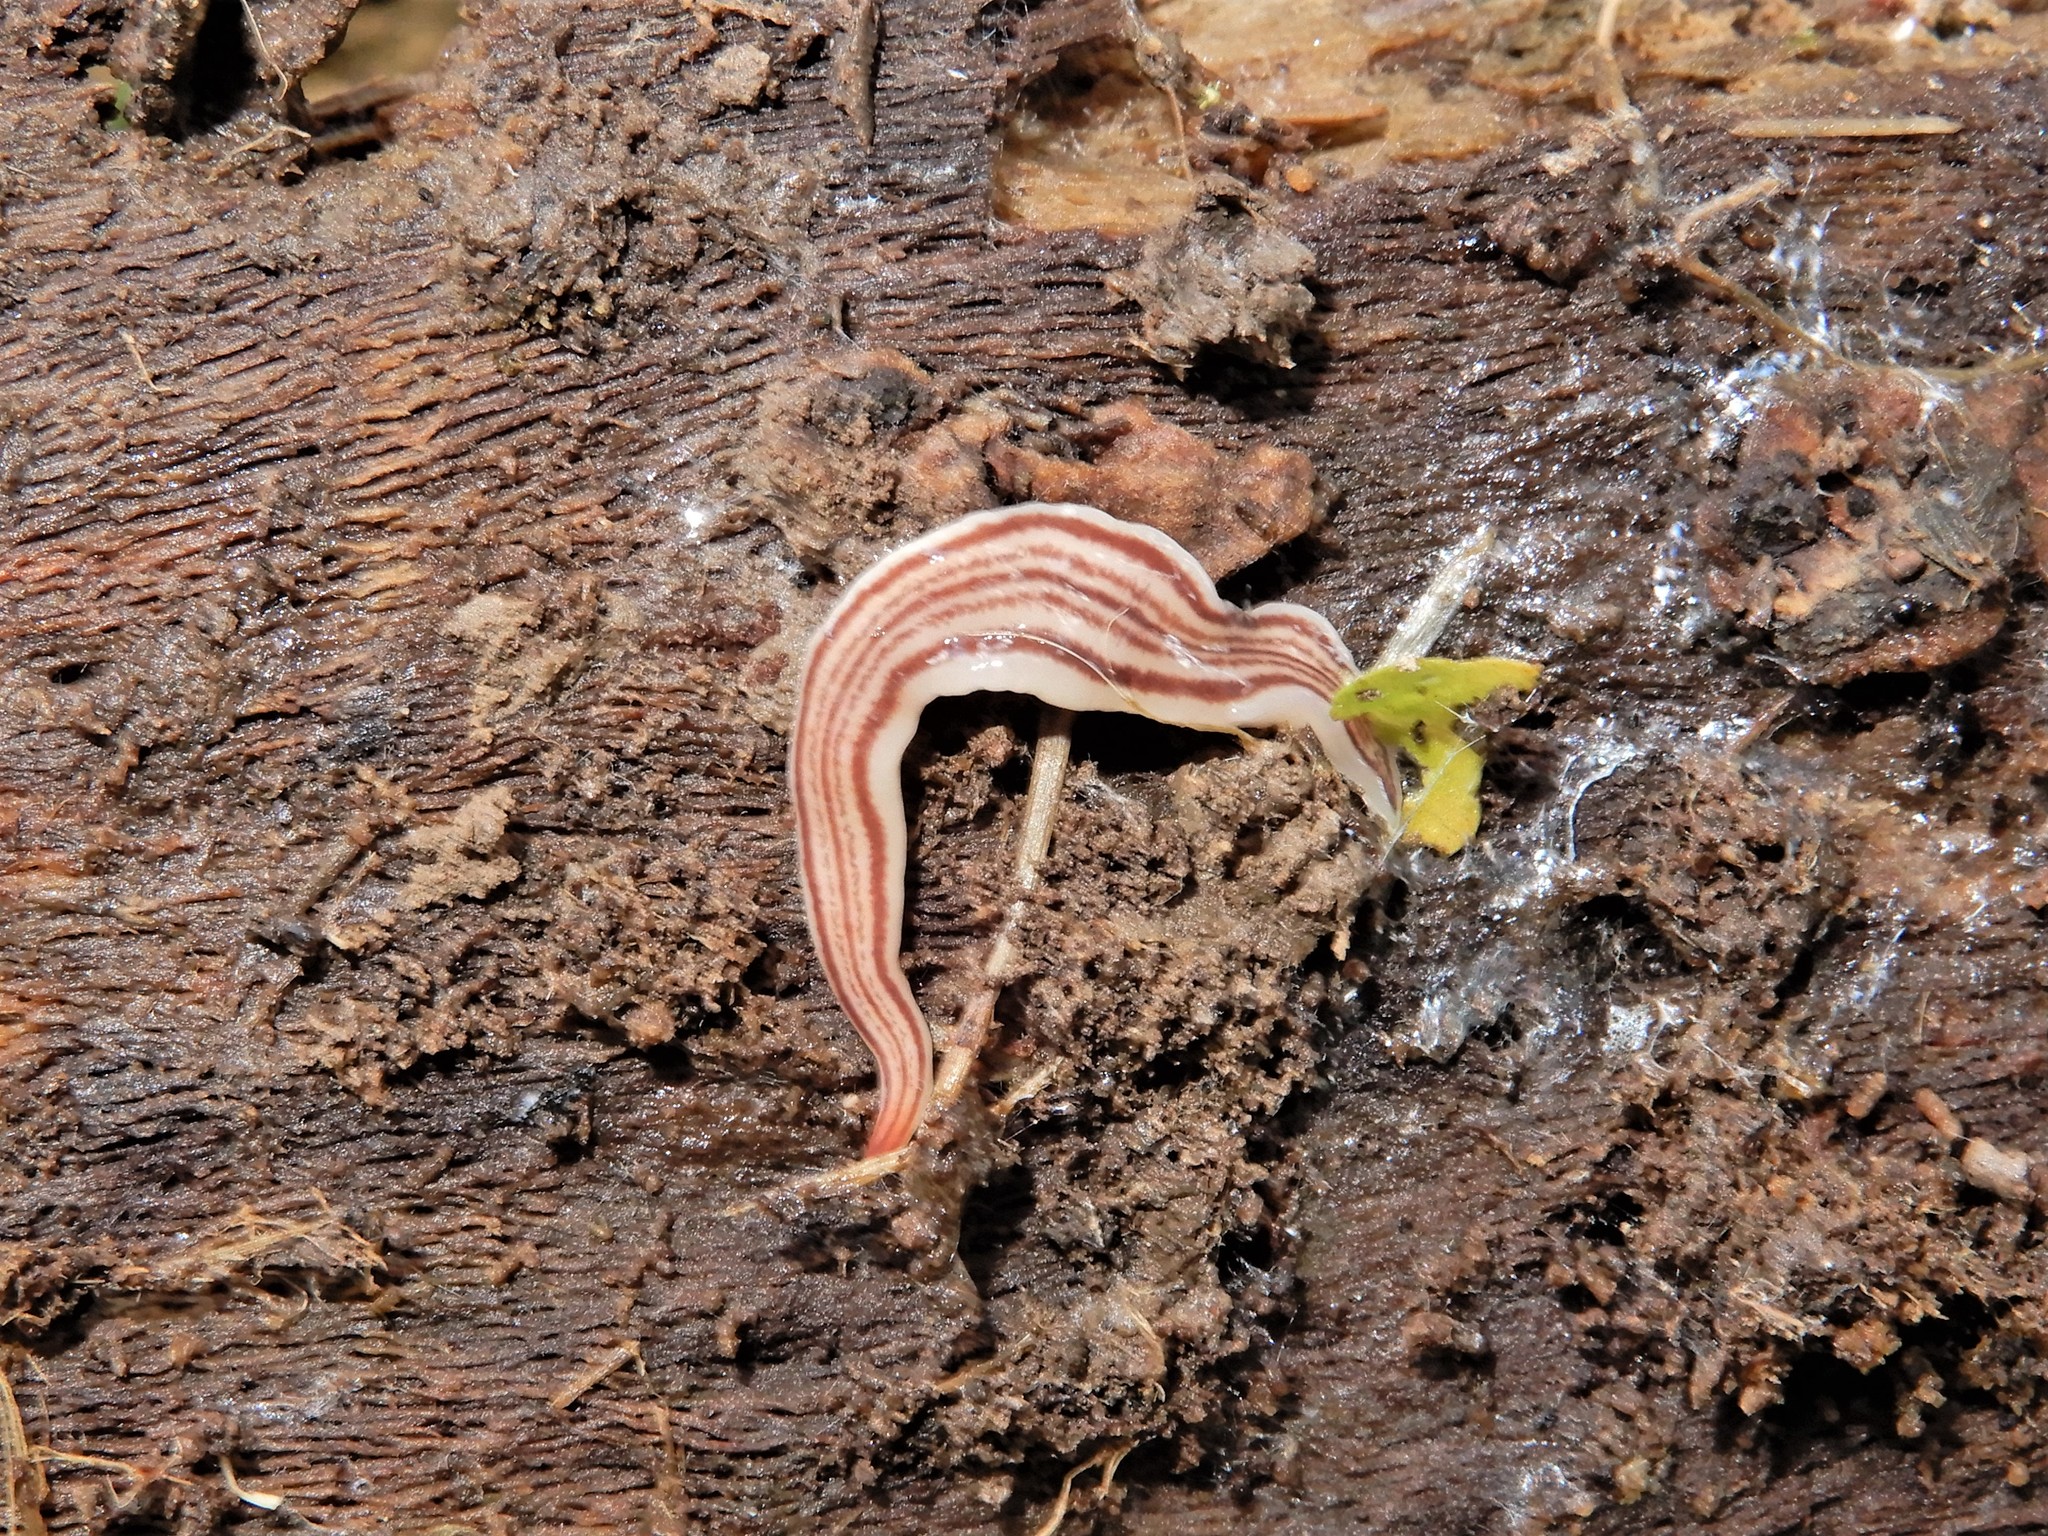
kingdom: Animalia
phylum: Platyhelminthes
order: Tricladida
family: Geoplanidae
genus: Australopacifica
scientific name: Australopacifica cooperi
